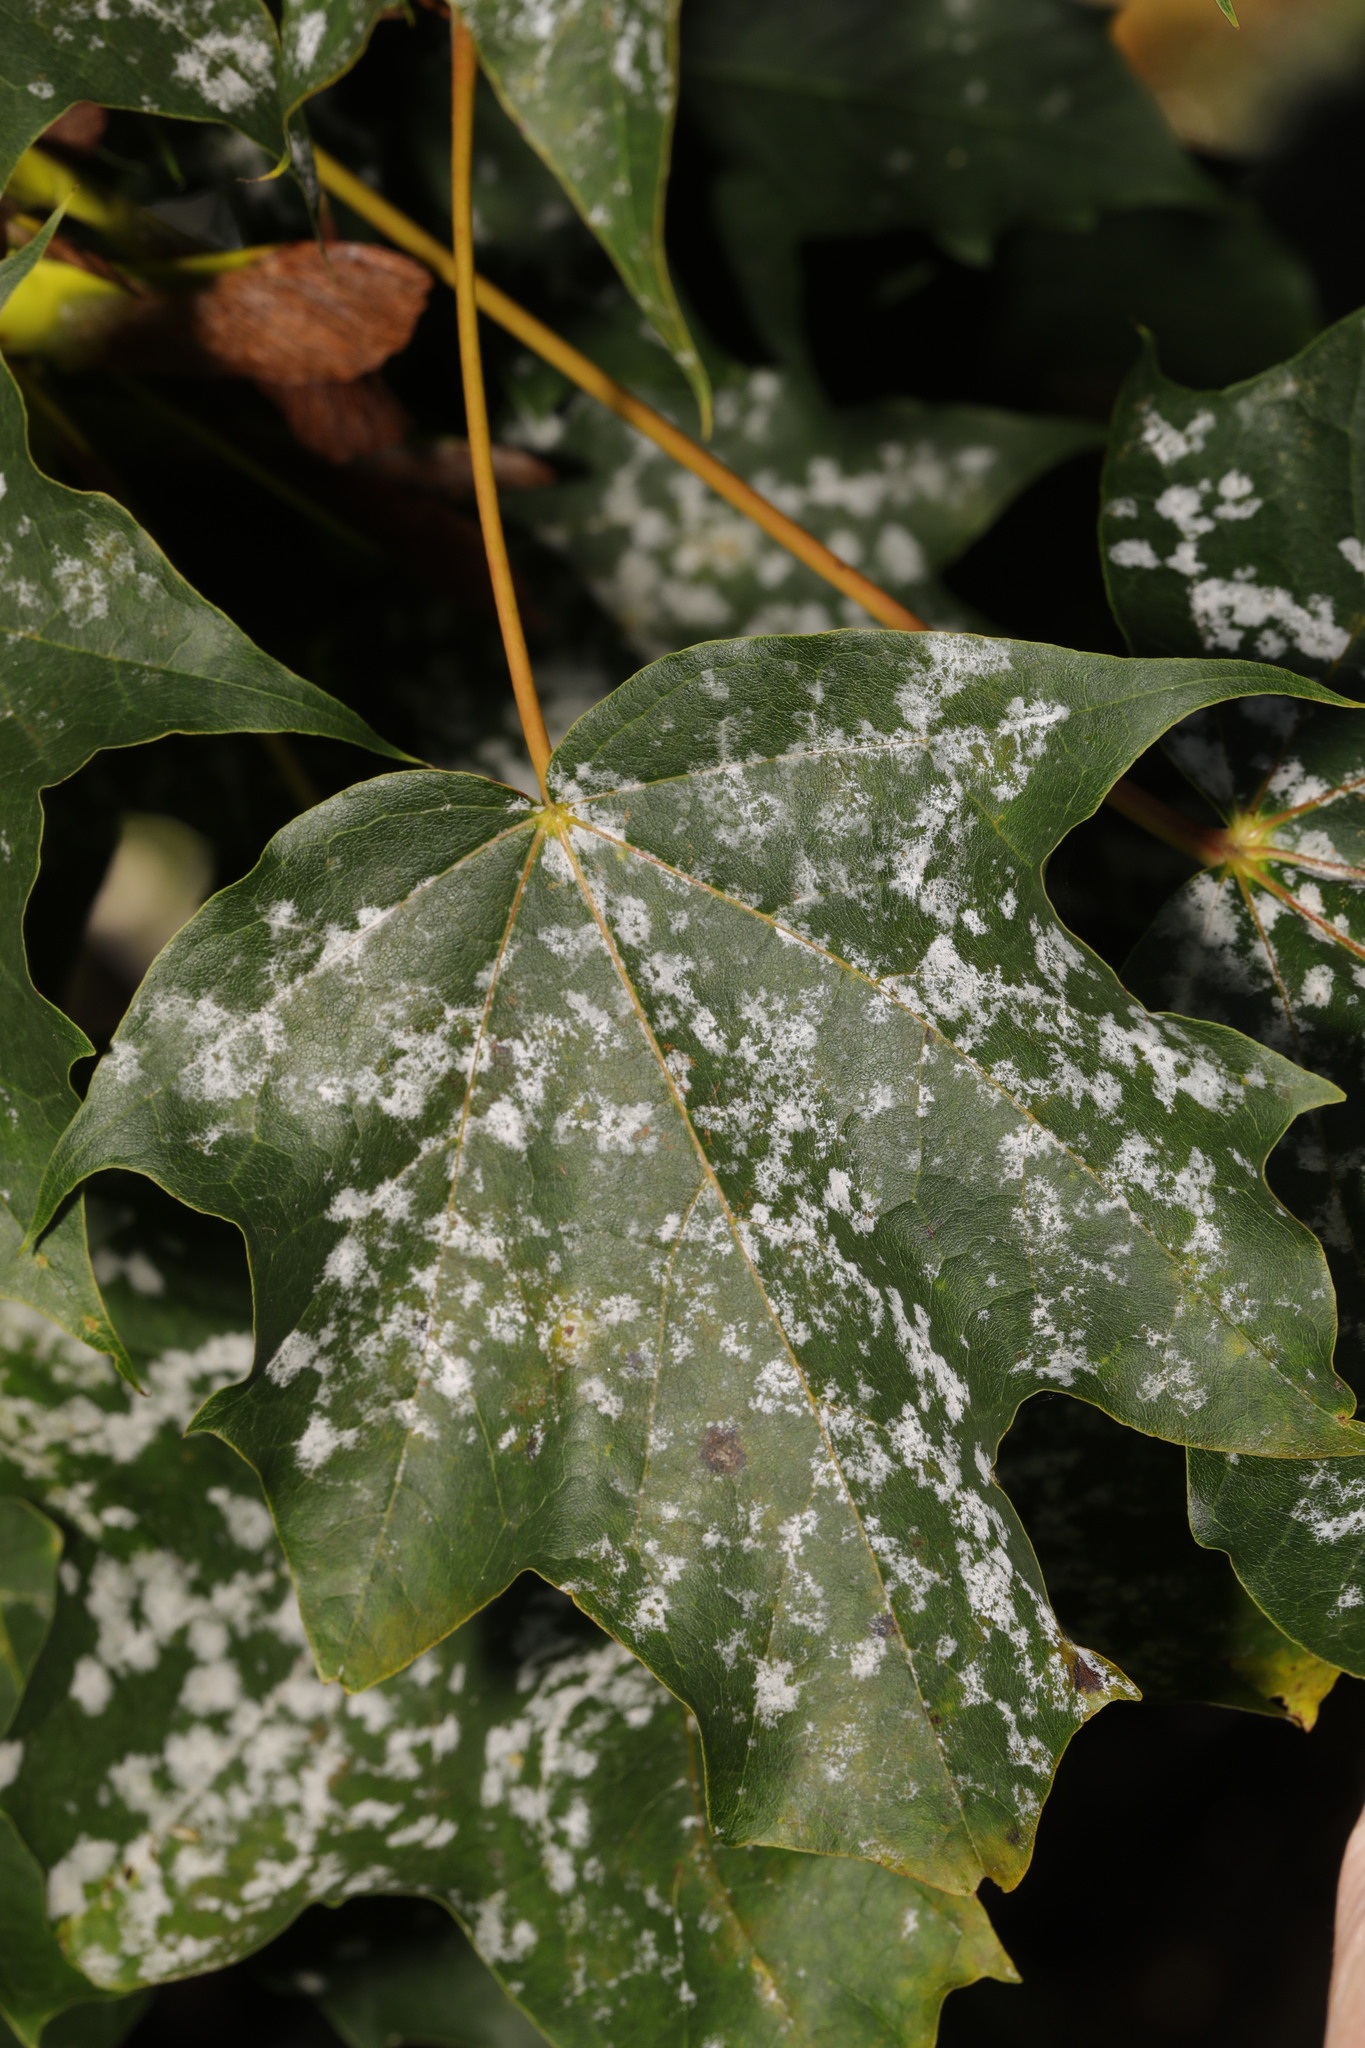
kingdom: Fungi
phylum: Ascomycota
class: Leotiomycetes
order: Helotiales
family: Erysiphaceae
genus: Sawadaea
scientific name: Sawadaea tulasnei
